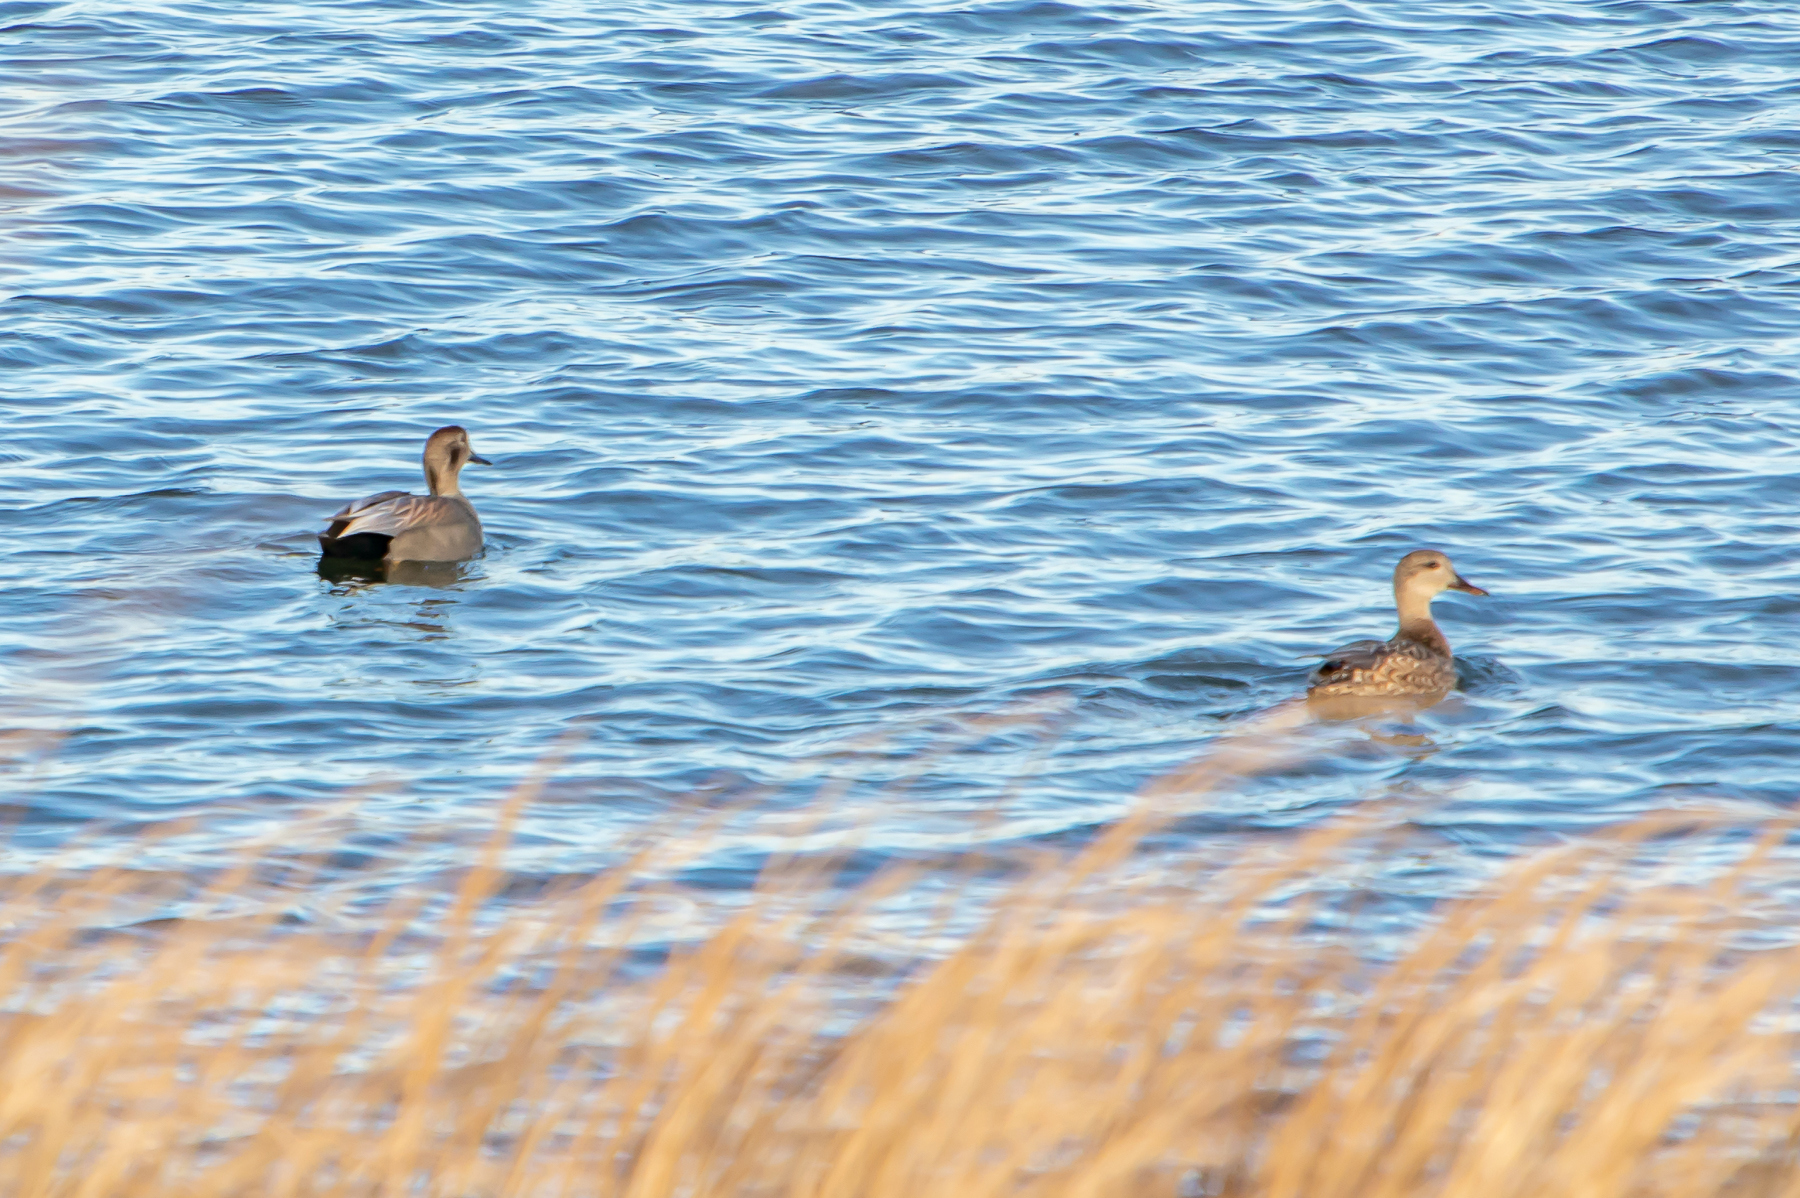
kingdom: Animalia
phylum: Chordata
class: Aves
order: Anseriformes
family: Anatidae
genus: Mareca
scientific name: Mareca strepera
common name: Gadwall
